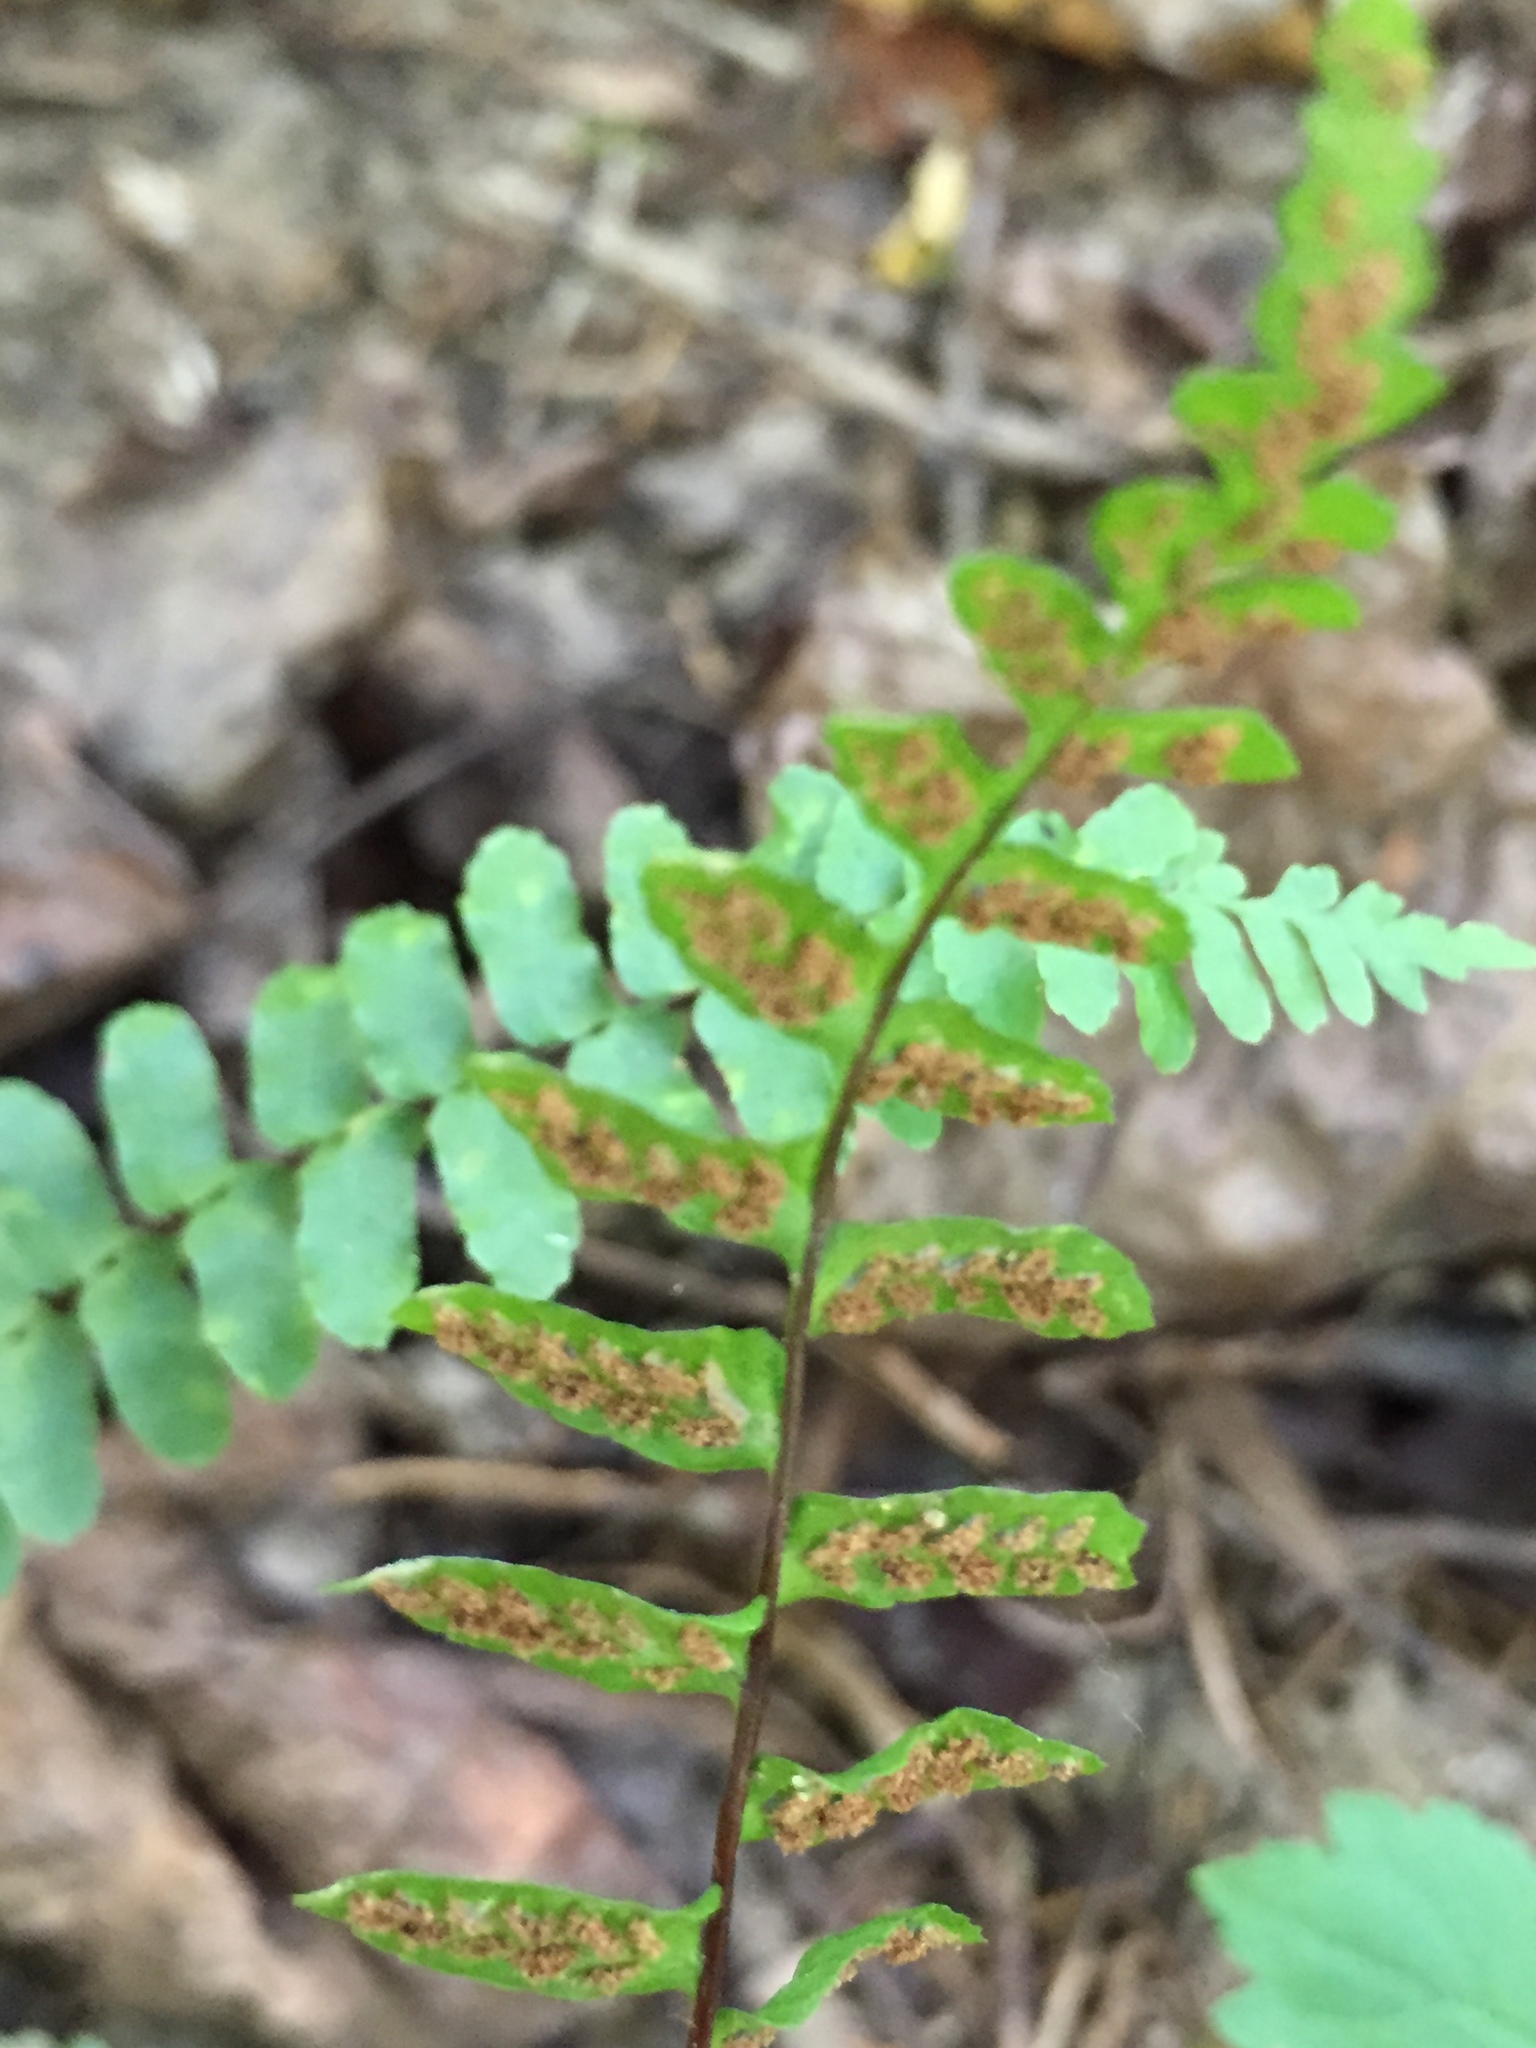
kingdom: Plantae
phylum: Tracheophyta
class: Polypodiopsida
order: Polypodiales
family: Aspleniaceae
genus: Asplenium
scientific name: Asplenium platyneuron
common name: Ebony spleenwort
